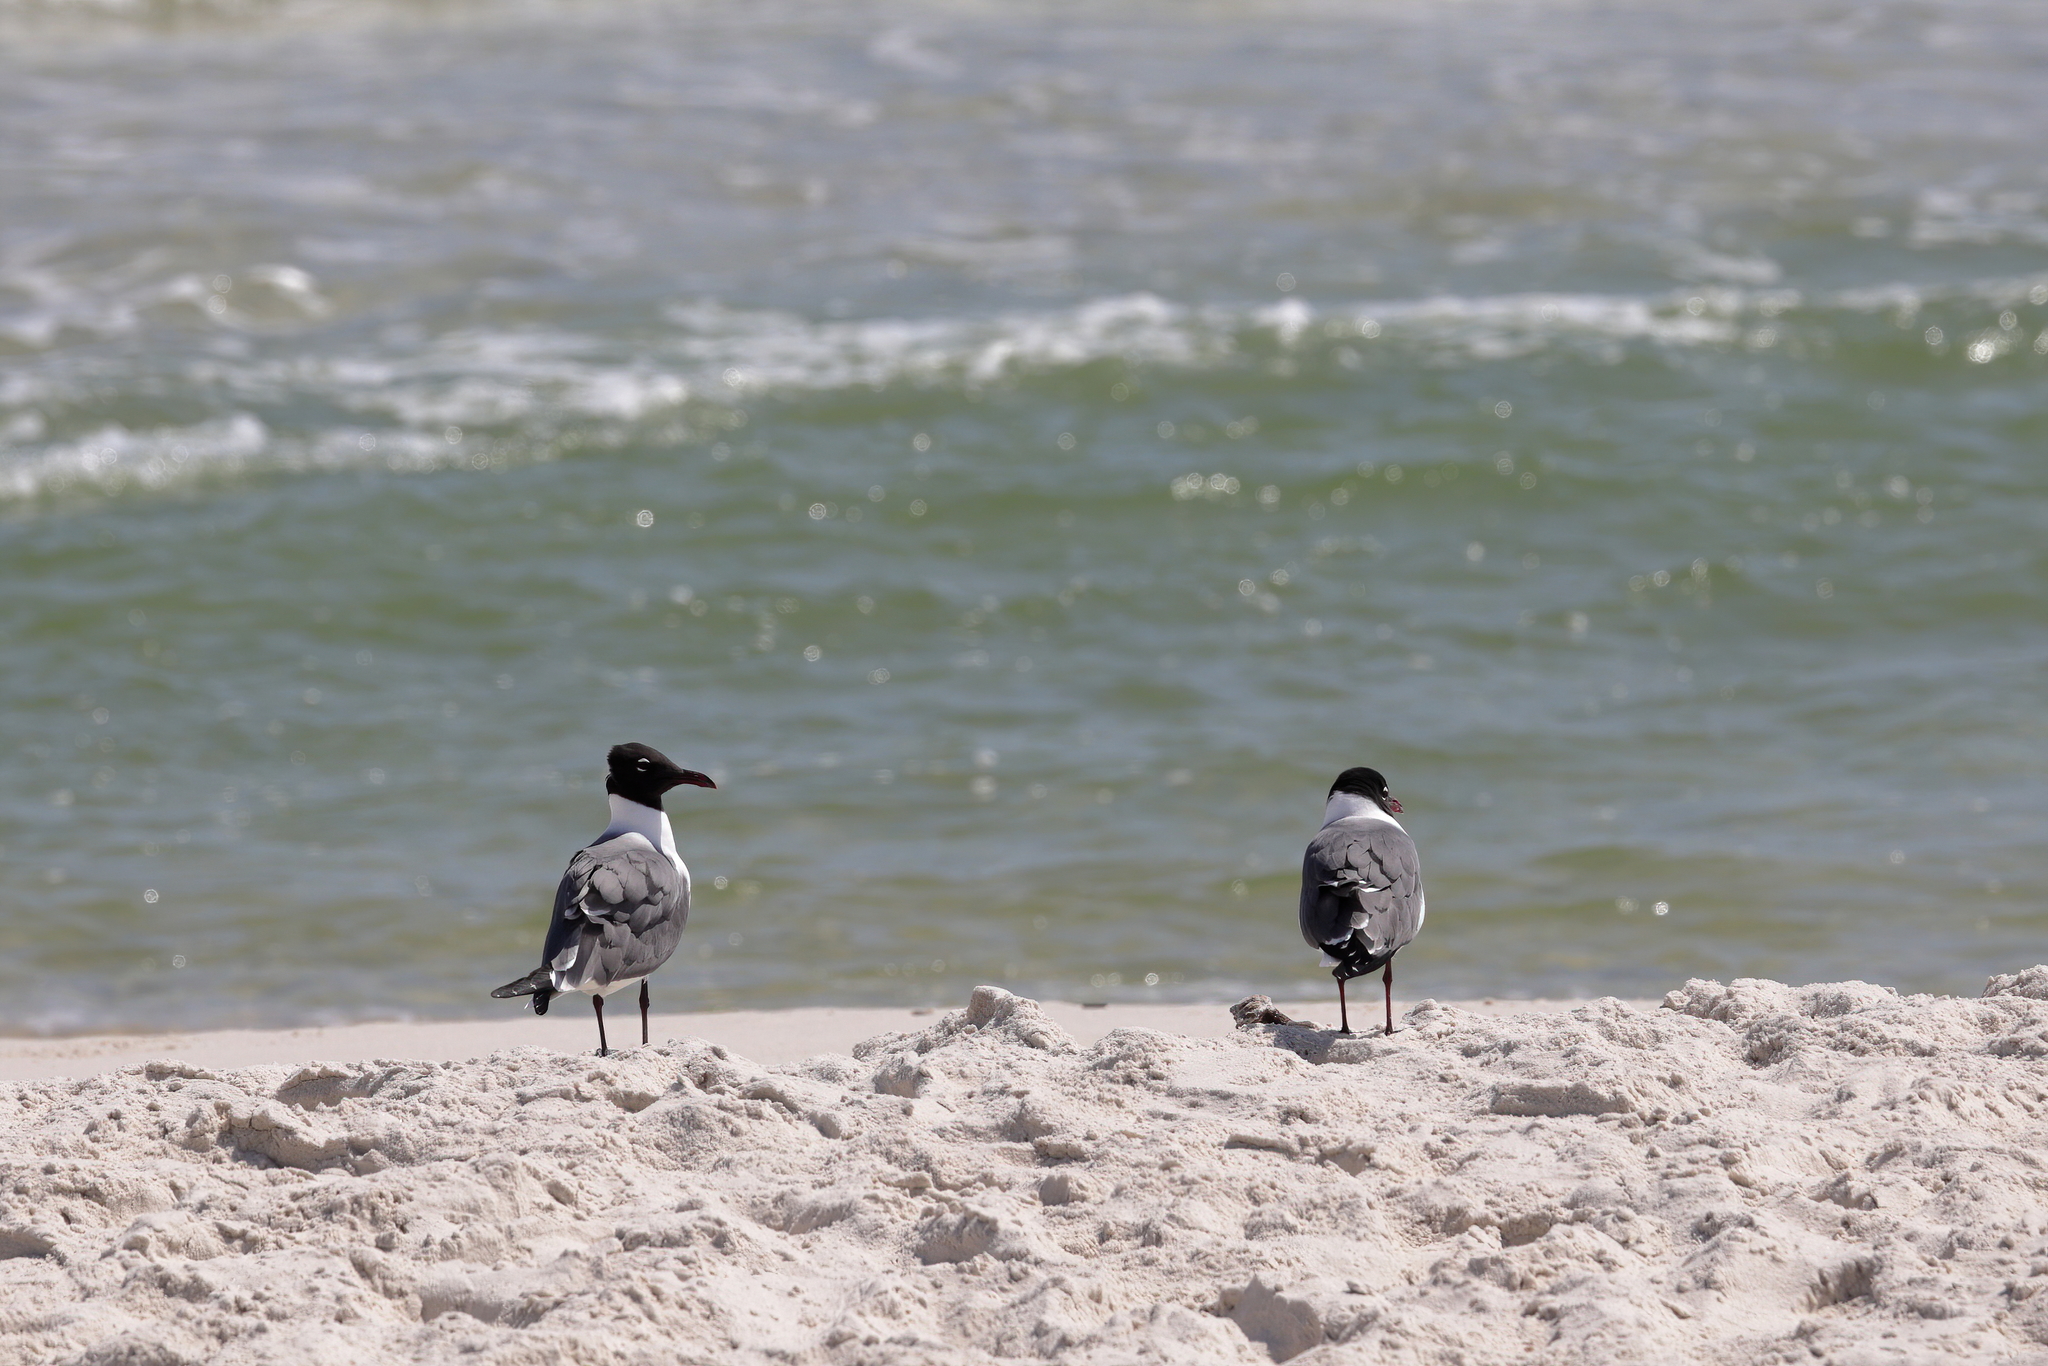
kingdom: Animalia
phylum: Chordata
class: Aves
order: Charadriiformes
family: Laridae
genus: Leucophaeus
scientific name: Leucophaeus atricilla
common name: Laughing gull
